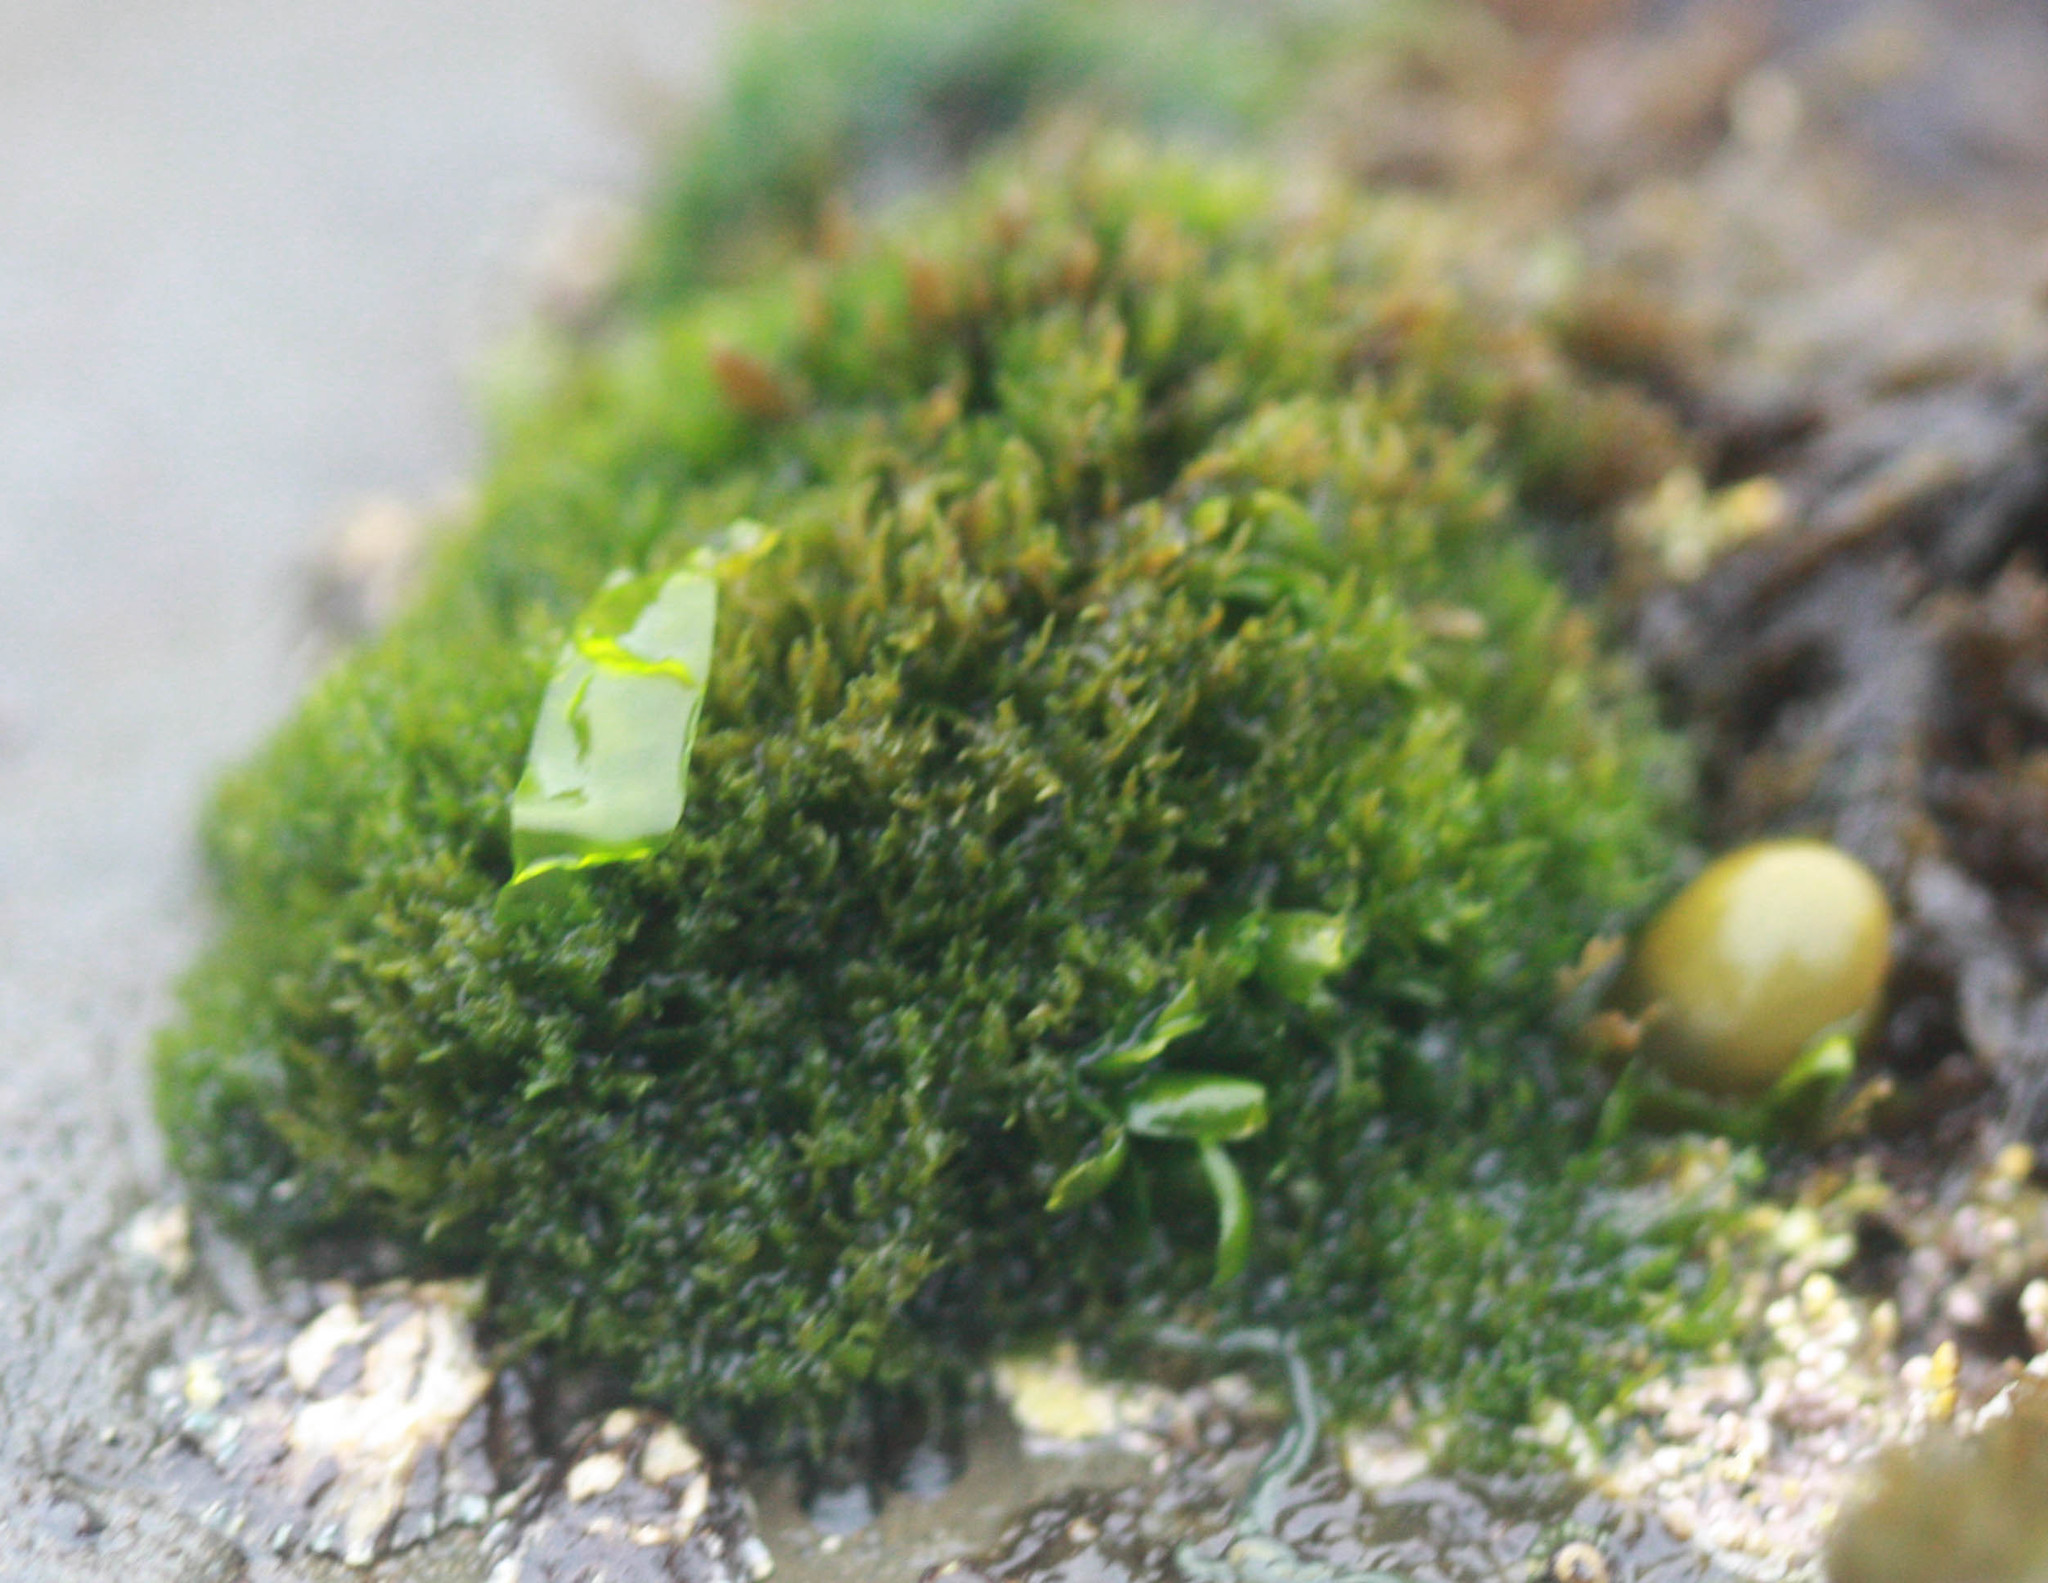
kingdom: Plantae
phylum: Chlorophyta
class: Ulvophyceae
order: Cladophorales
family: Cladophoraceae
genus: Cladophora
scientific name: Cladophora columbiana
